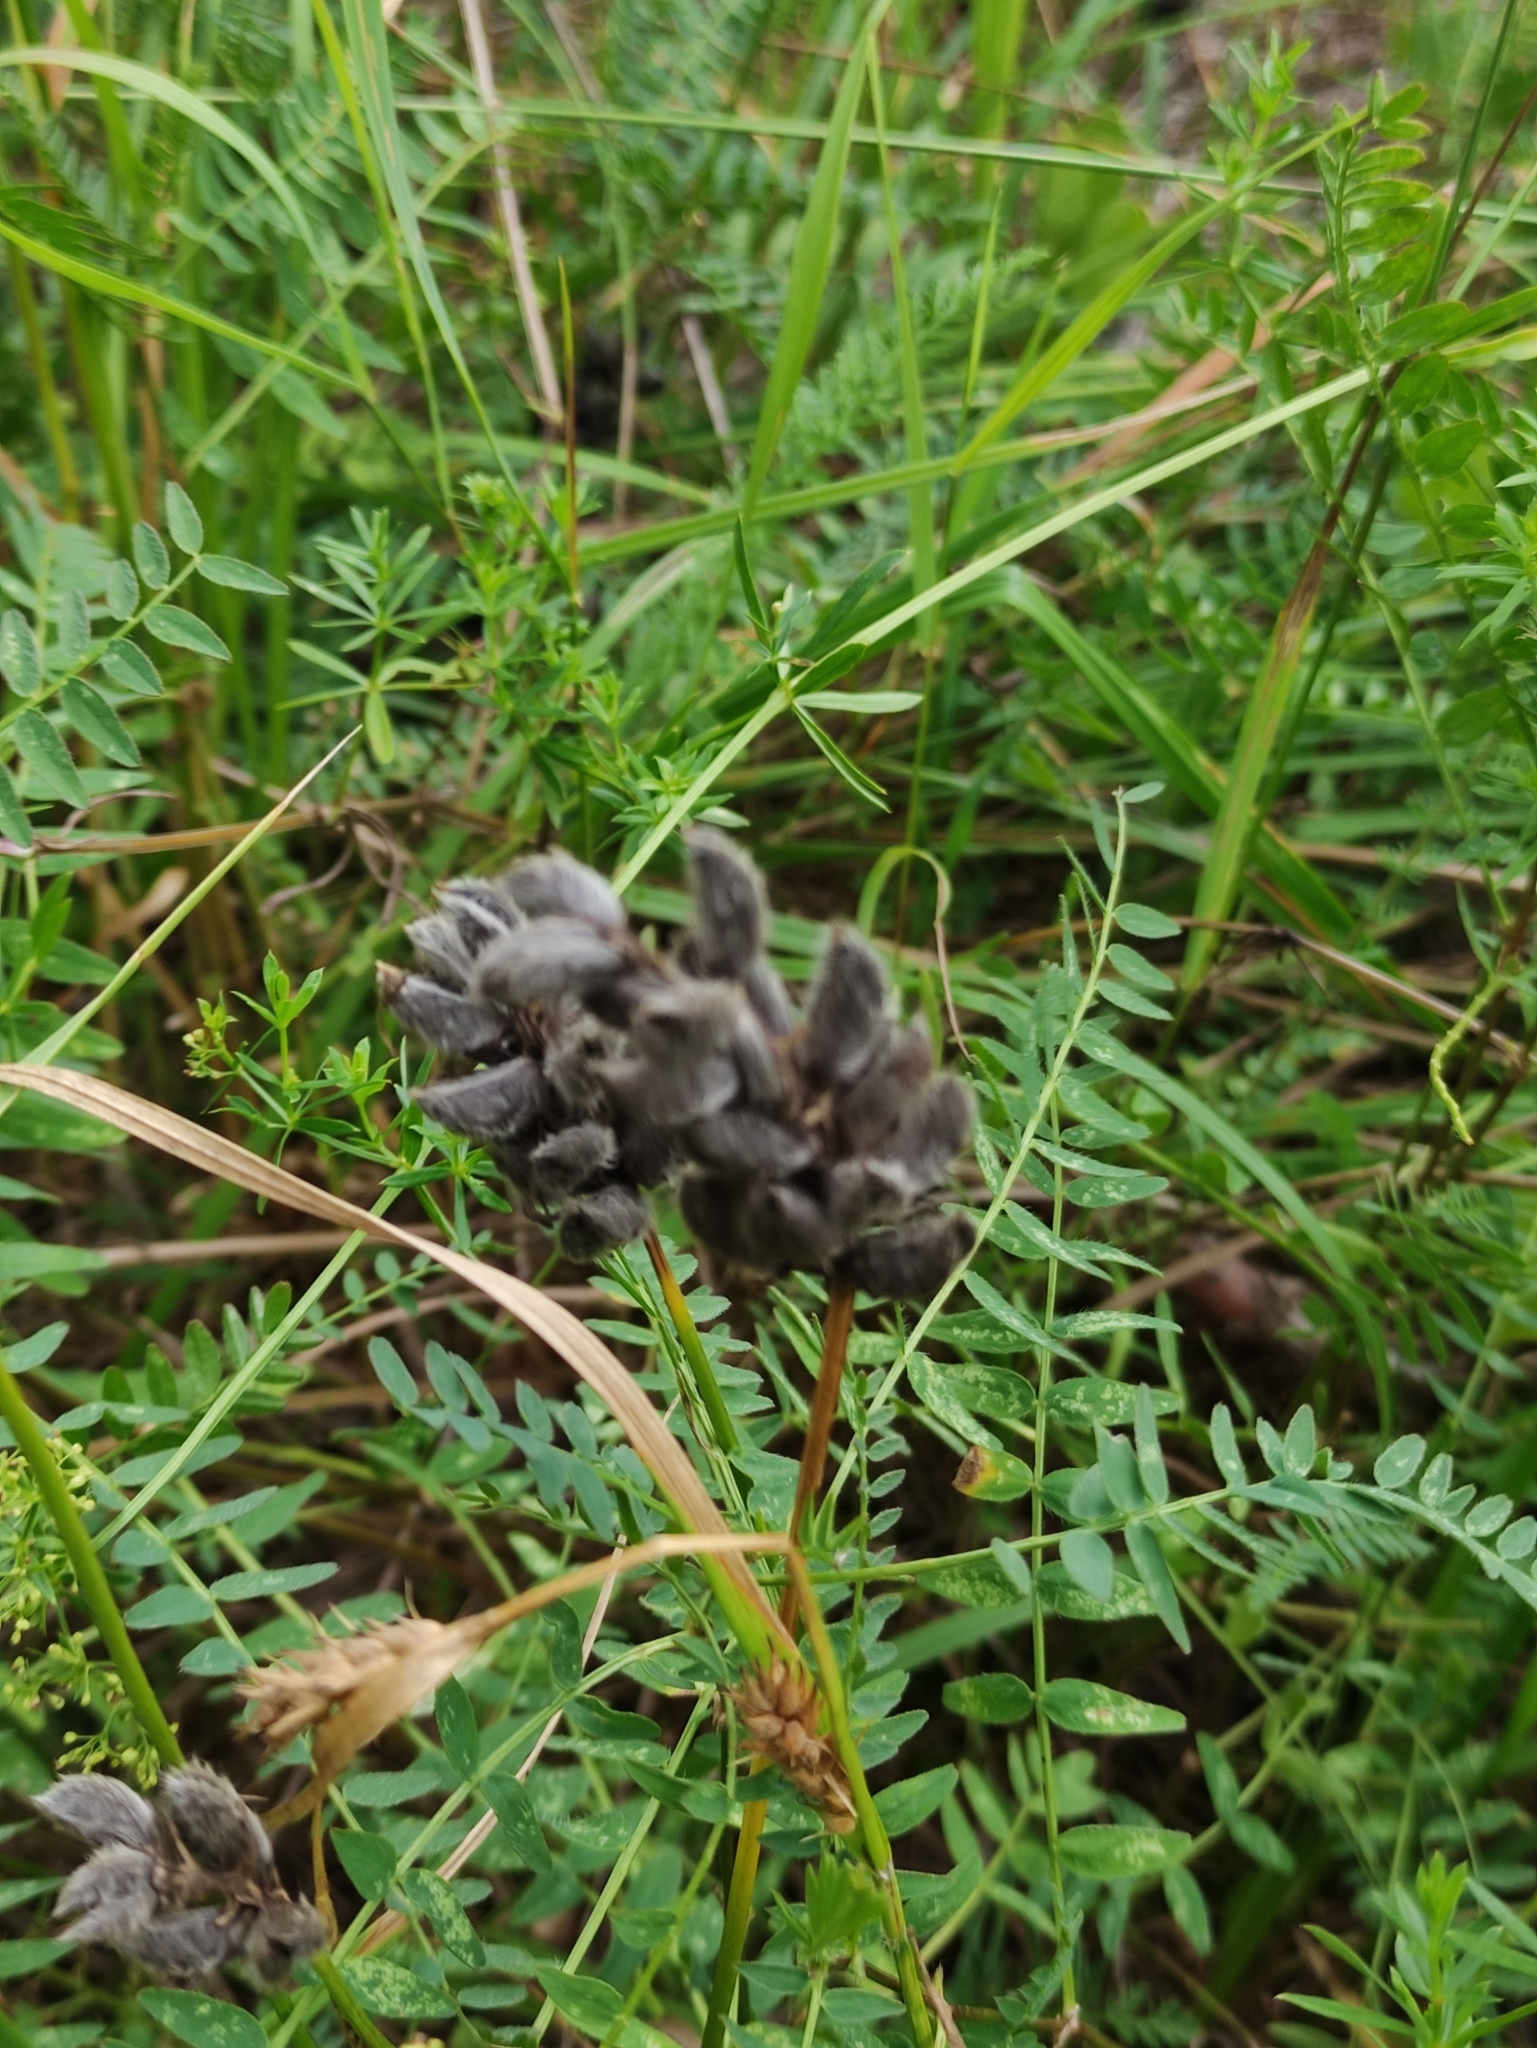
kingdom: Plantae
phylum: Tracheophyta
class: Magnoliopsida
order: Fabales
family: Fabaceae
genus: Astragalus
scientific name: Astragalus danicus
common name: Purple milk-vetch
